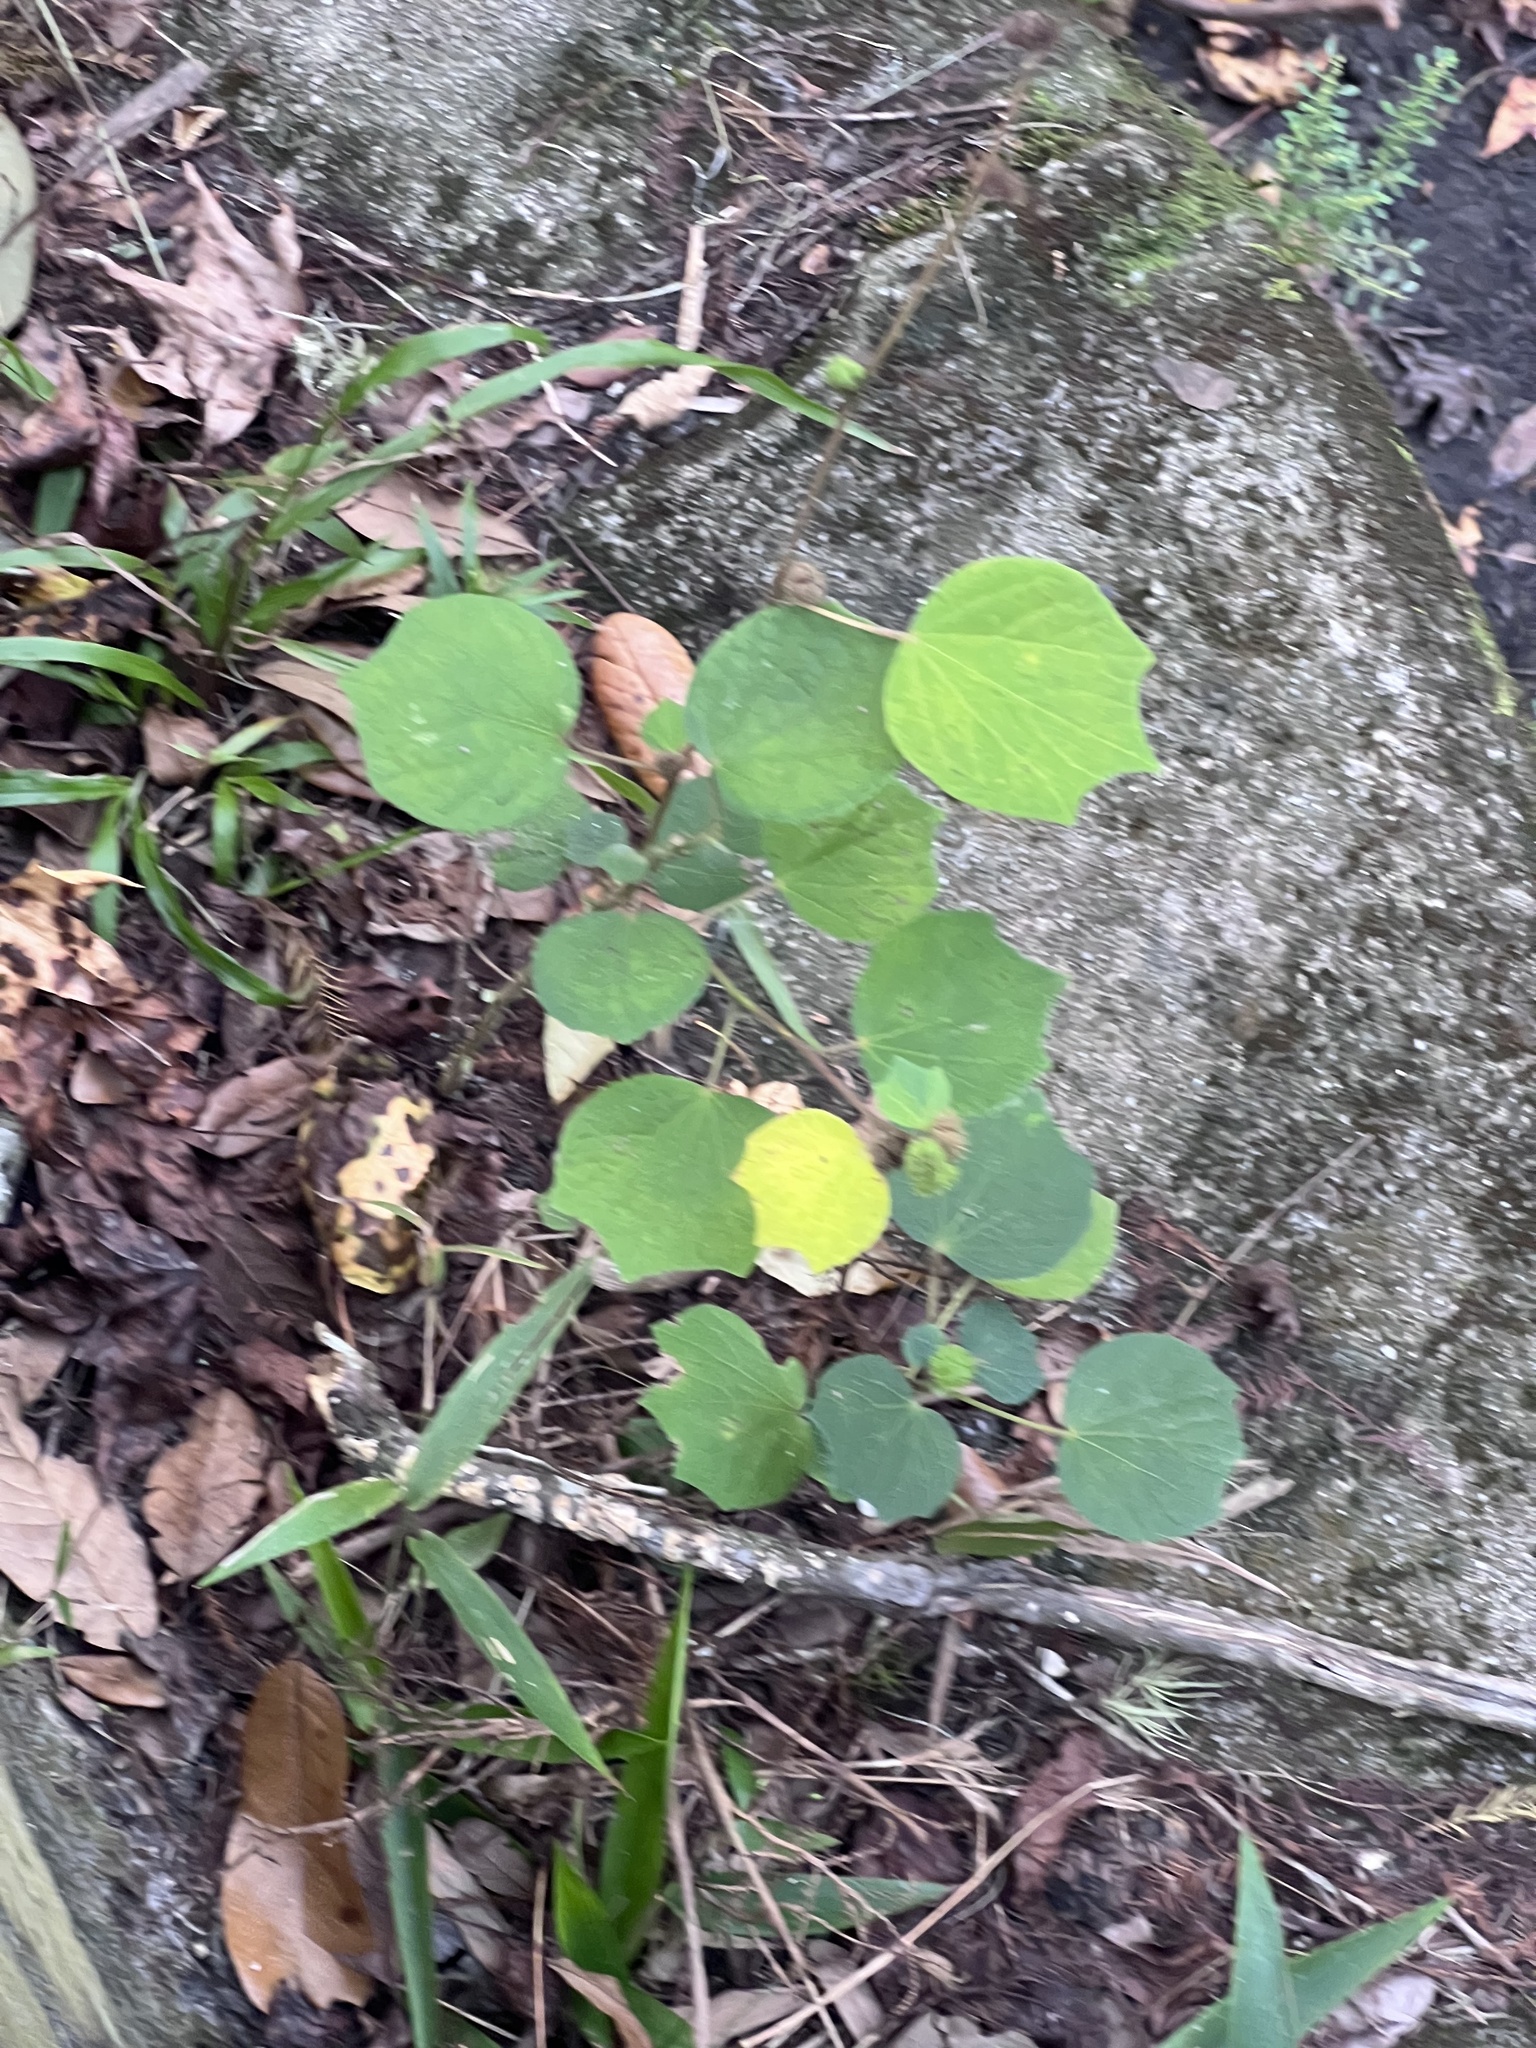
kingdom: Plantae
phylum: Tracheophyta
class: Magnoliopsida
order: Malvales
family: Malvaceae
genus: Urena
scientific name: Urena lobata
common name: Caesarweed
